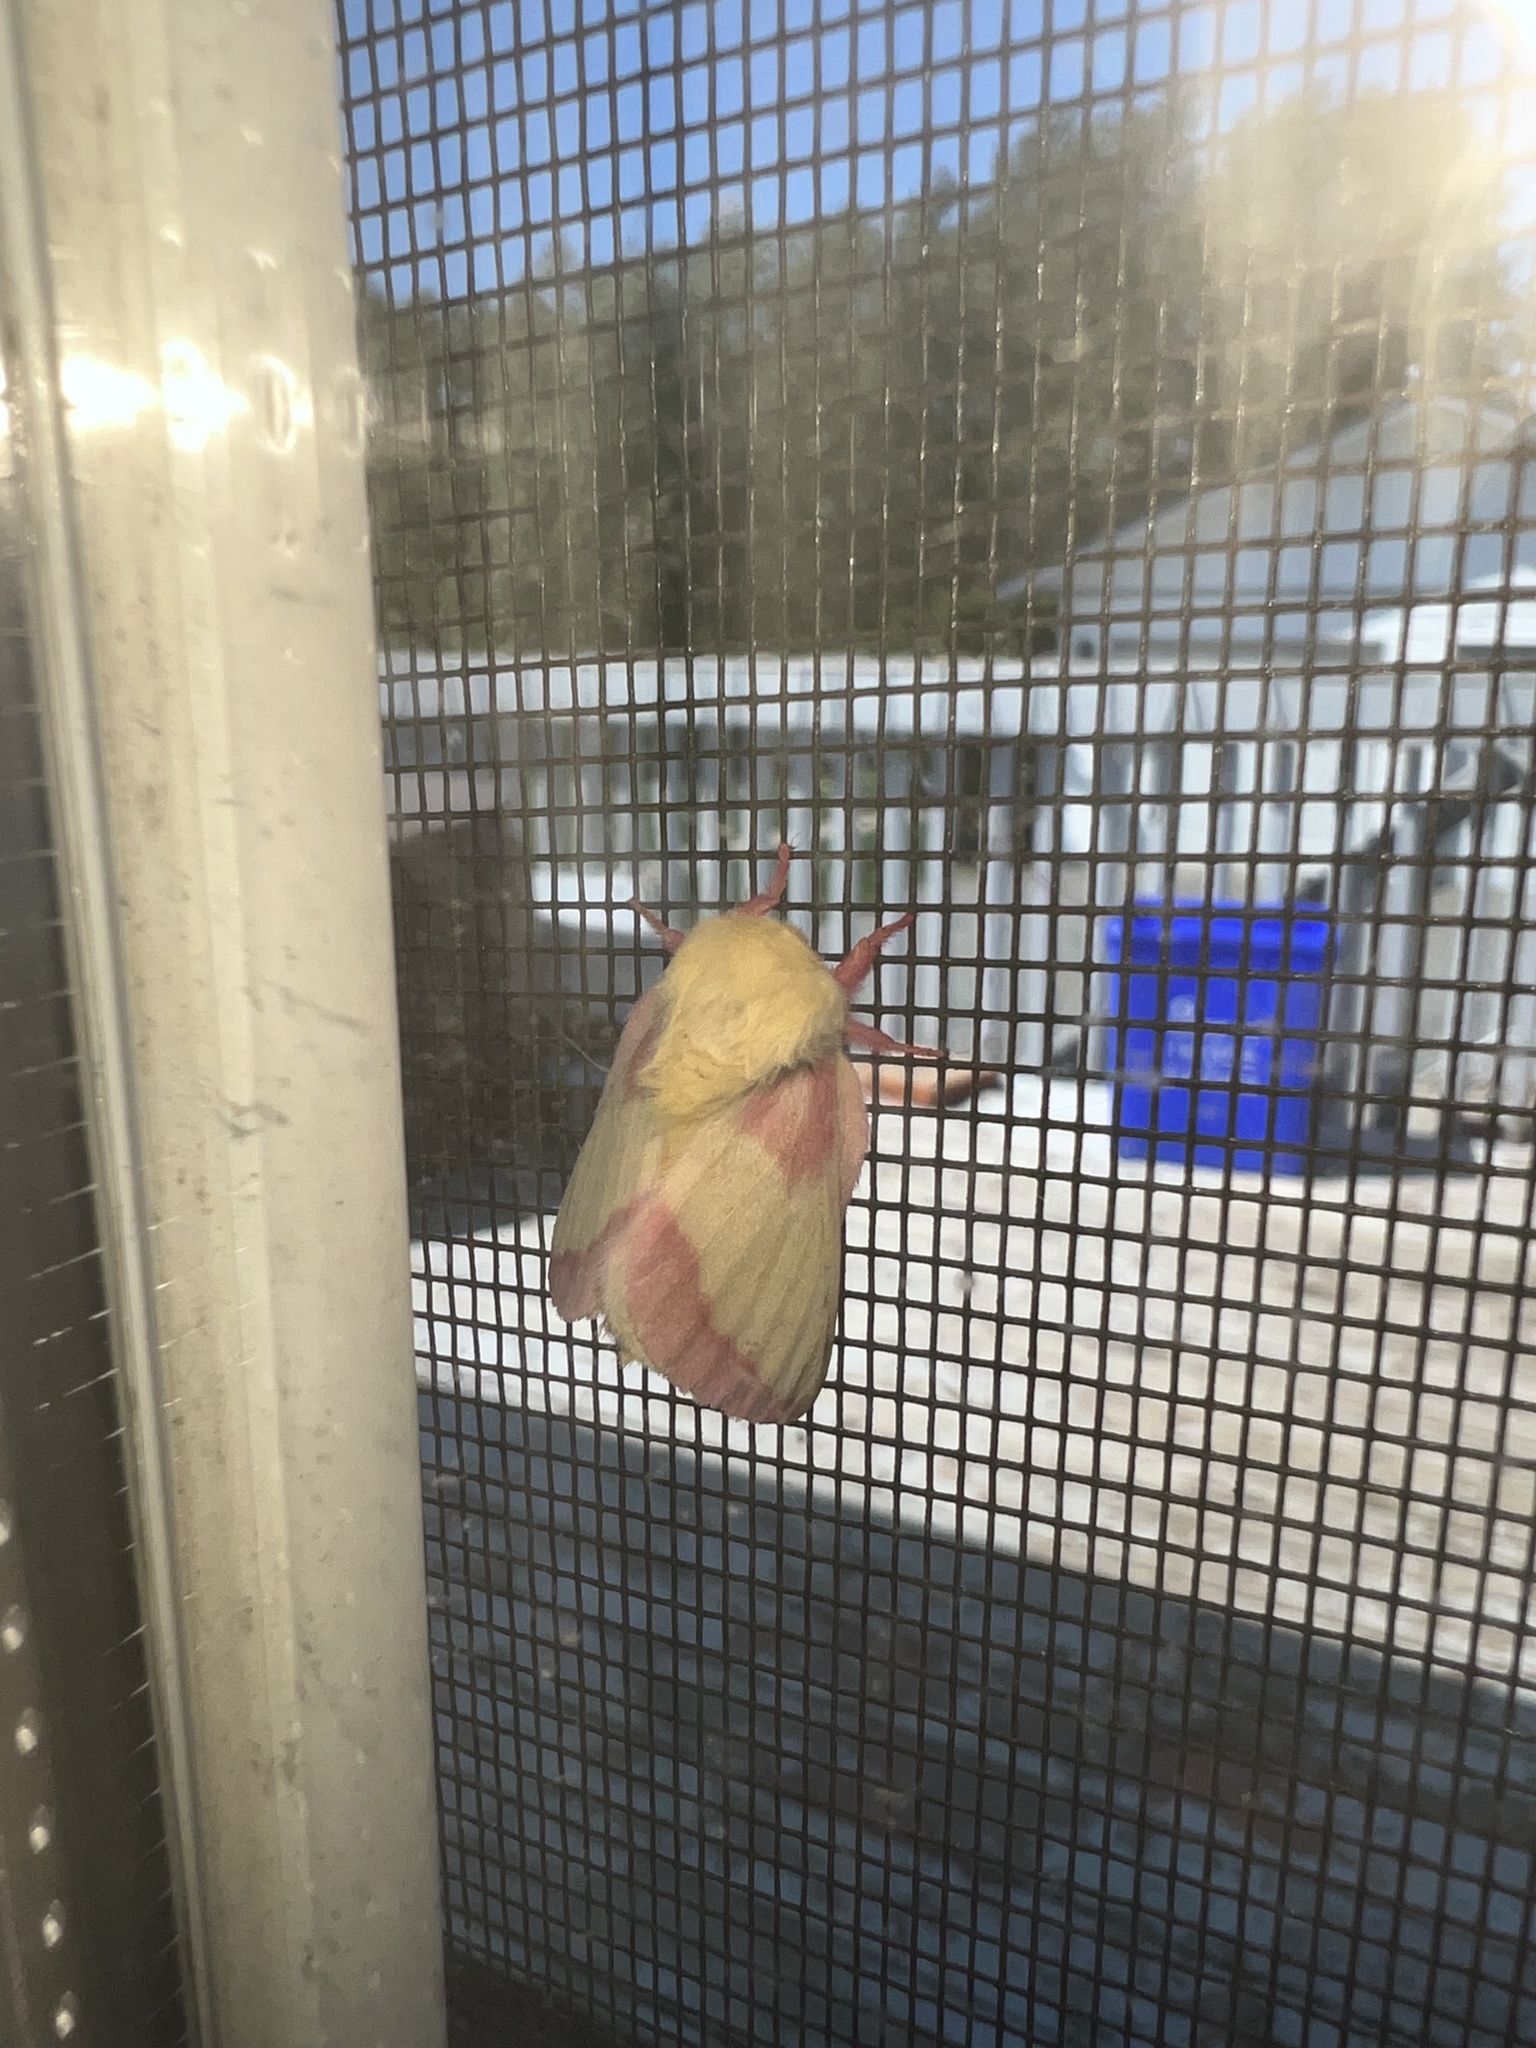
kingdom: Animalia
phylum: Arthropoda
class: Insecta
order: Lepidoptera
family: Saturniidae
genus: Dryocampa
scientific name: Dryocampa rubicunda
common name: Rosy maple moth
